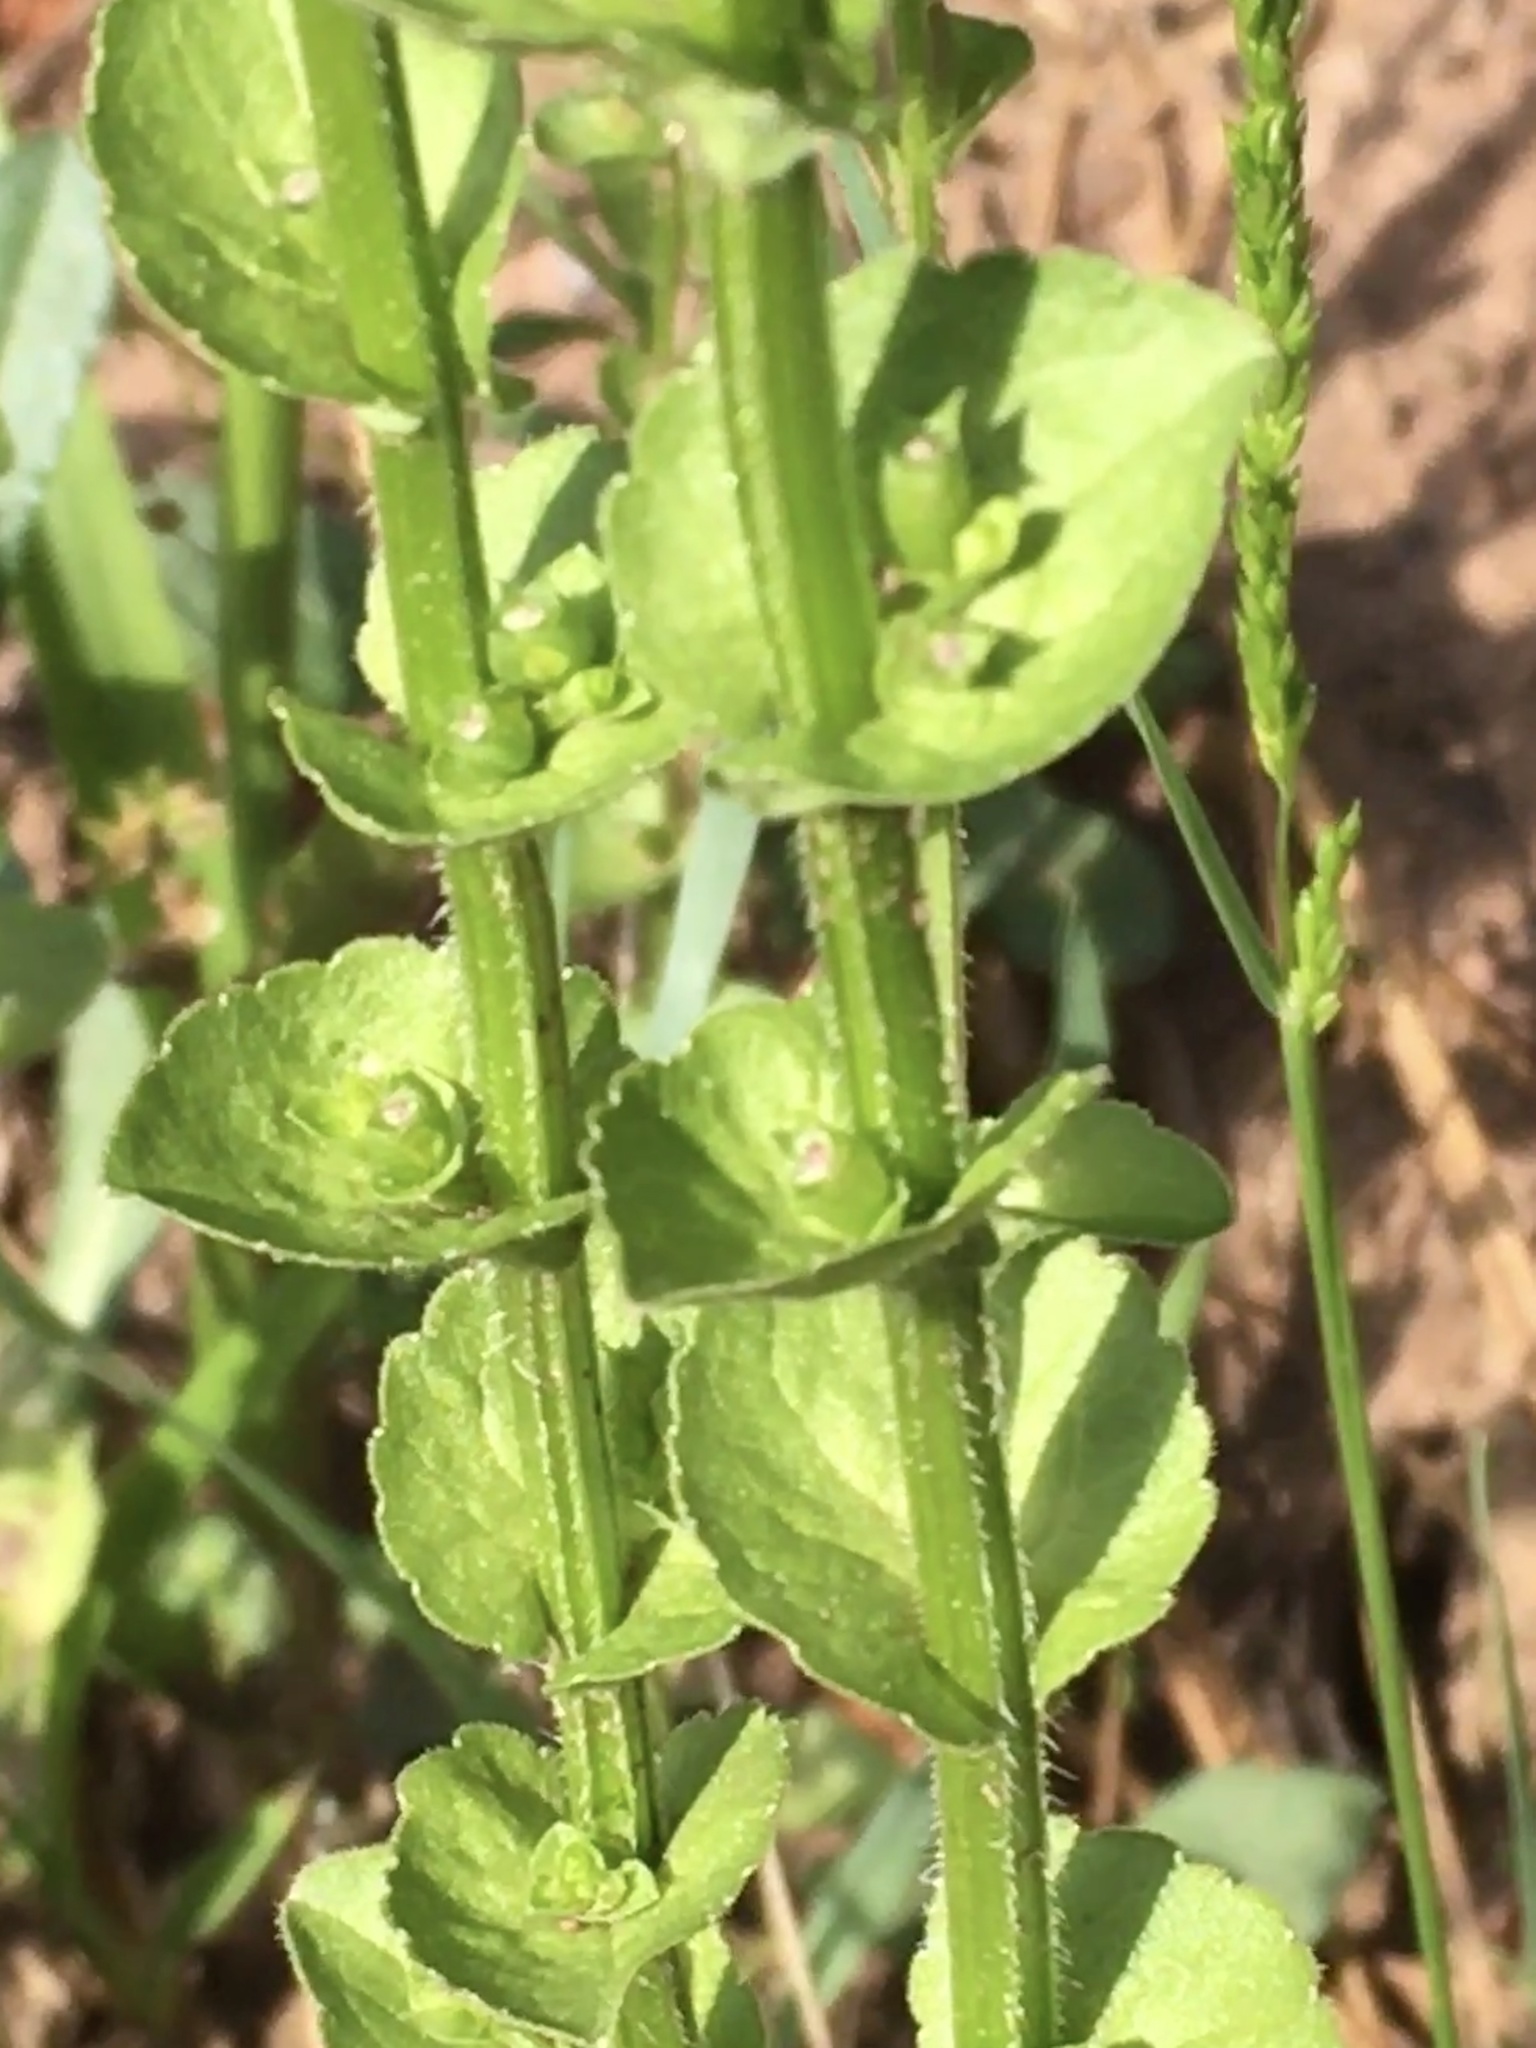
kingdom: Plantae
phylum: Tracheophyta
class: Magnoliopsida
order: Asterales
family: Campanulaceae
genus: Triodanis
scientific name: Triodanis perfoliata
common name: Clasping venus' looking-glass
